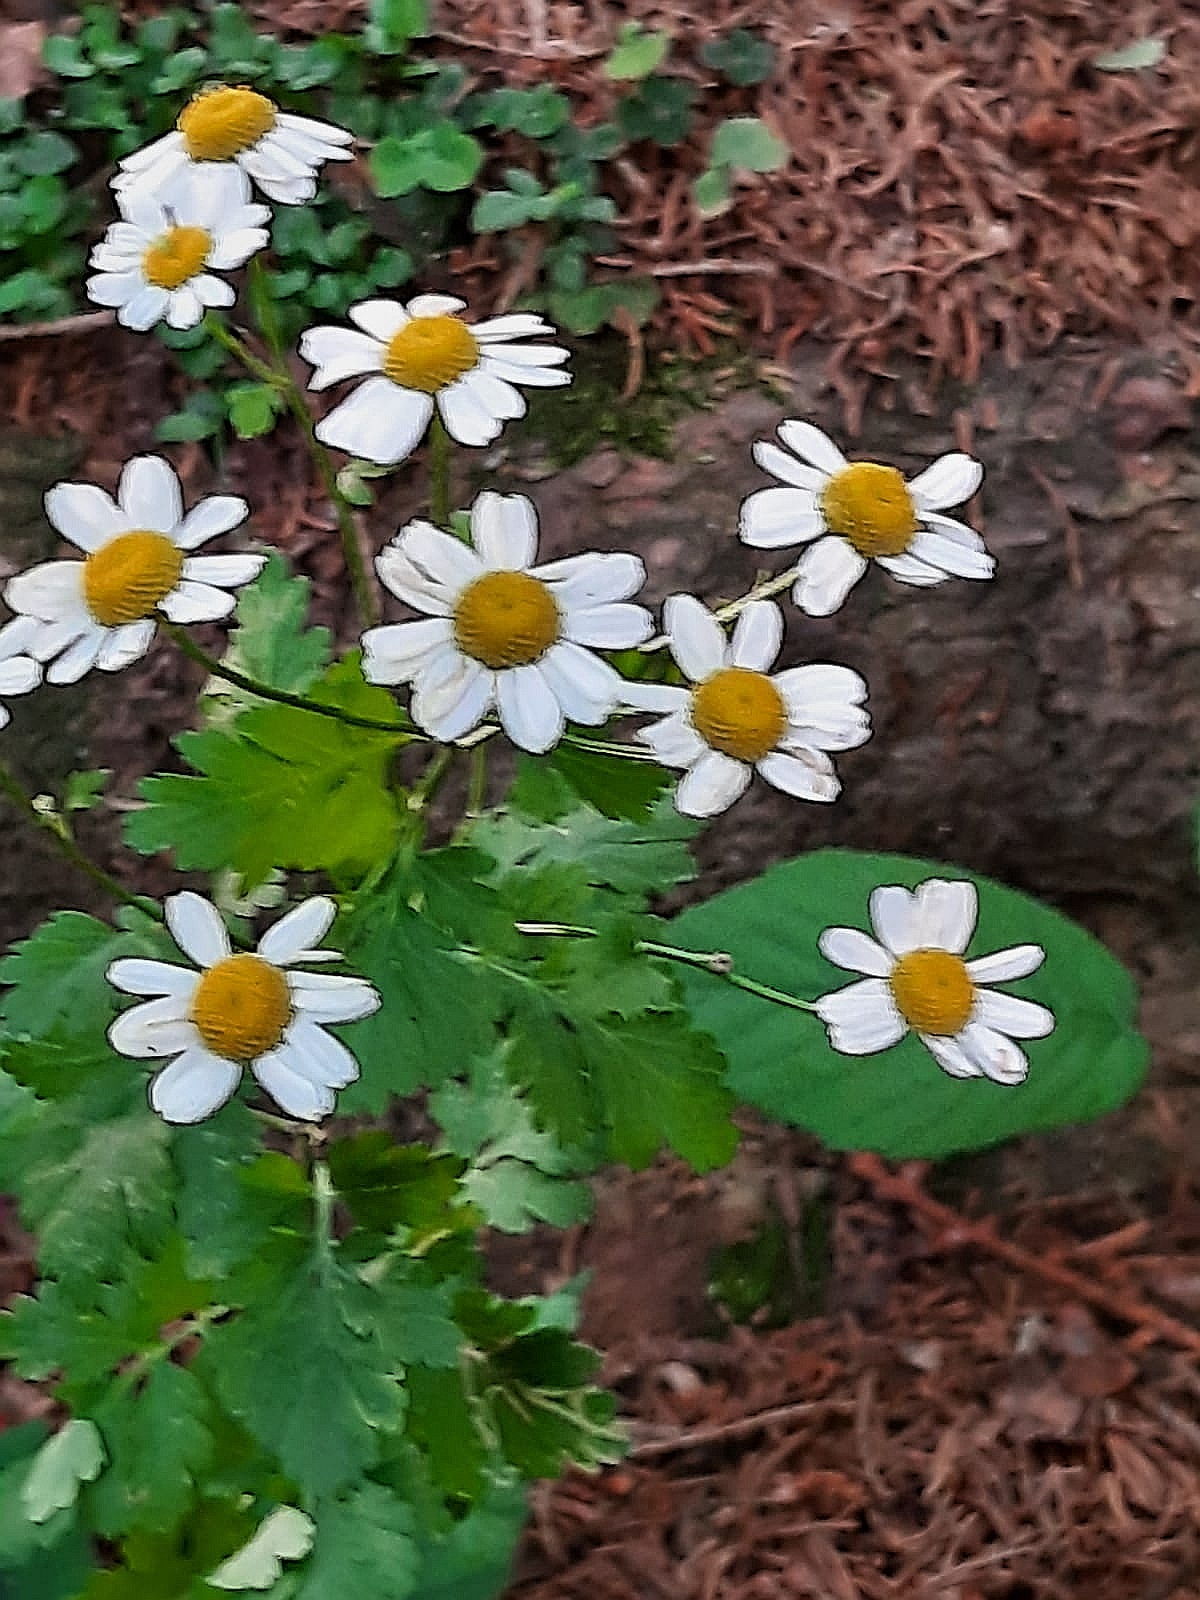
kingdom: Plantae
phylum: Tracheophyta
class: Magnoliopsida
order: Asterales
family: Asteraceae
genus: Tanacetum
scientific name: Tanacetum parthenium
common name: Feverfew
